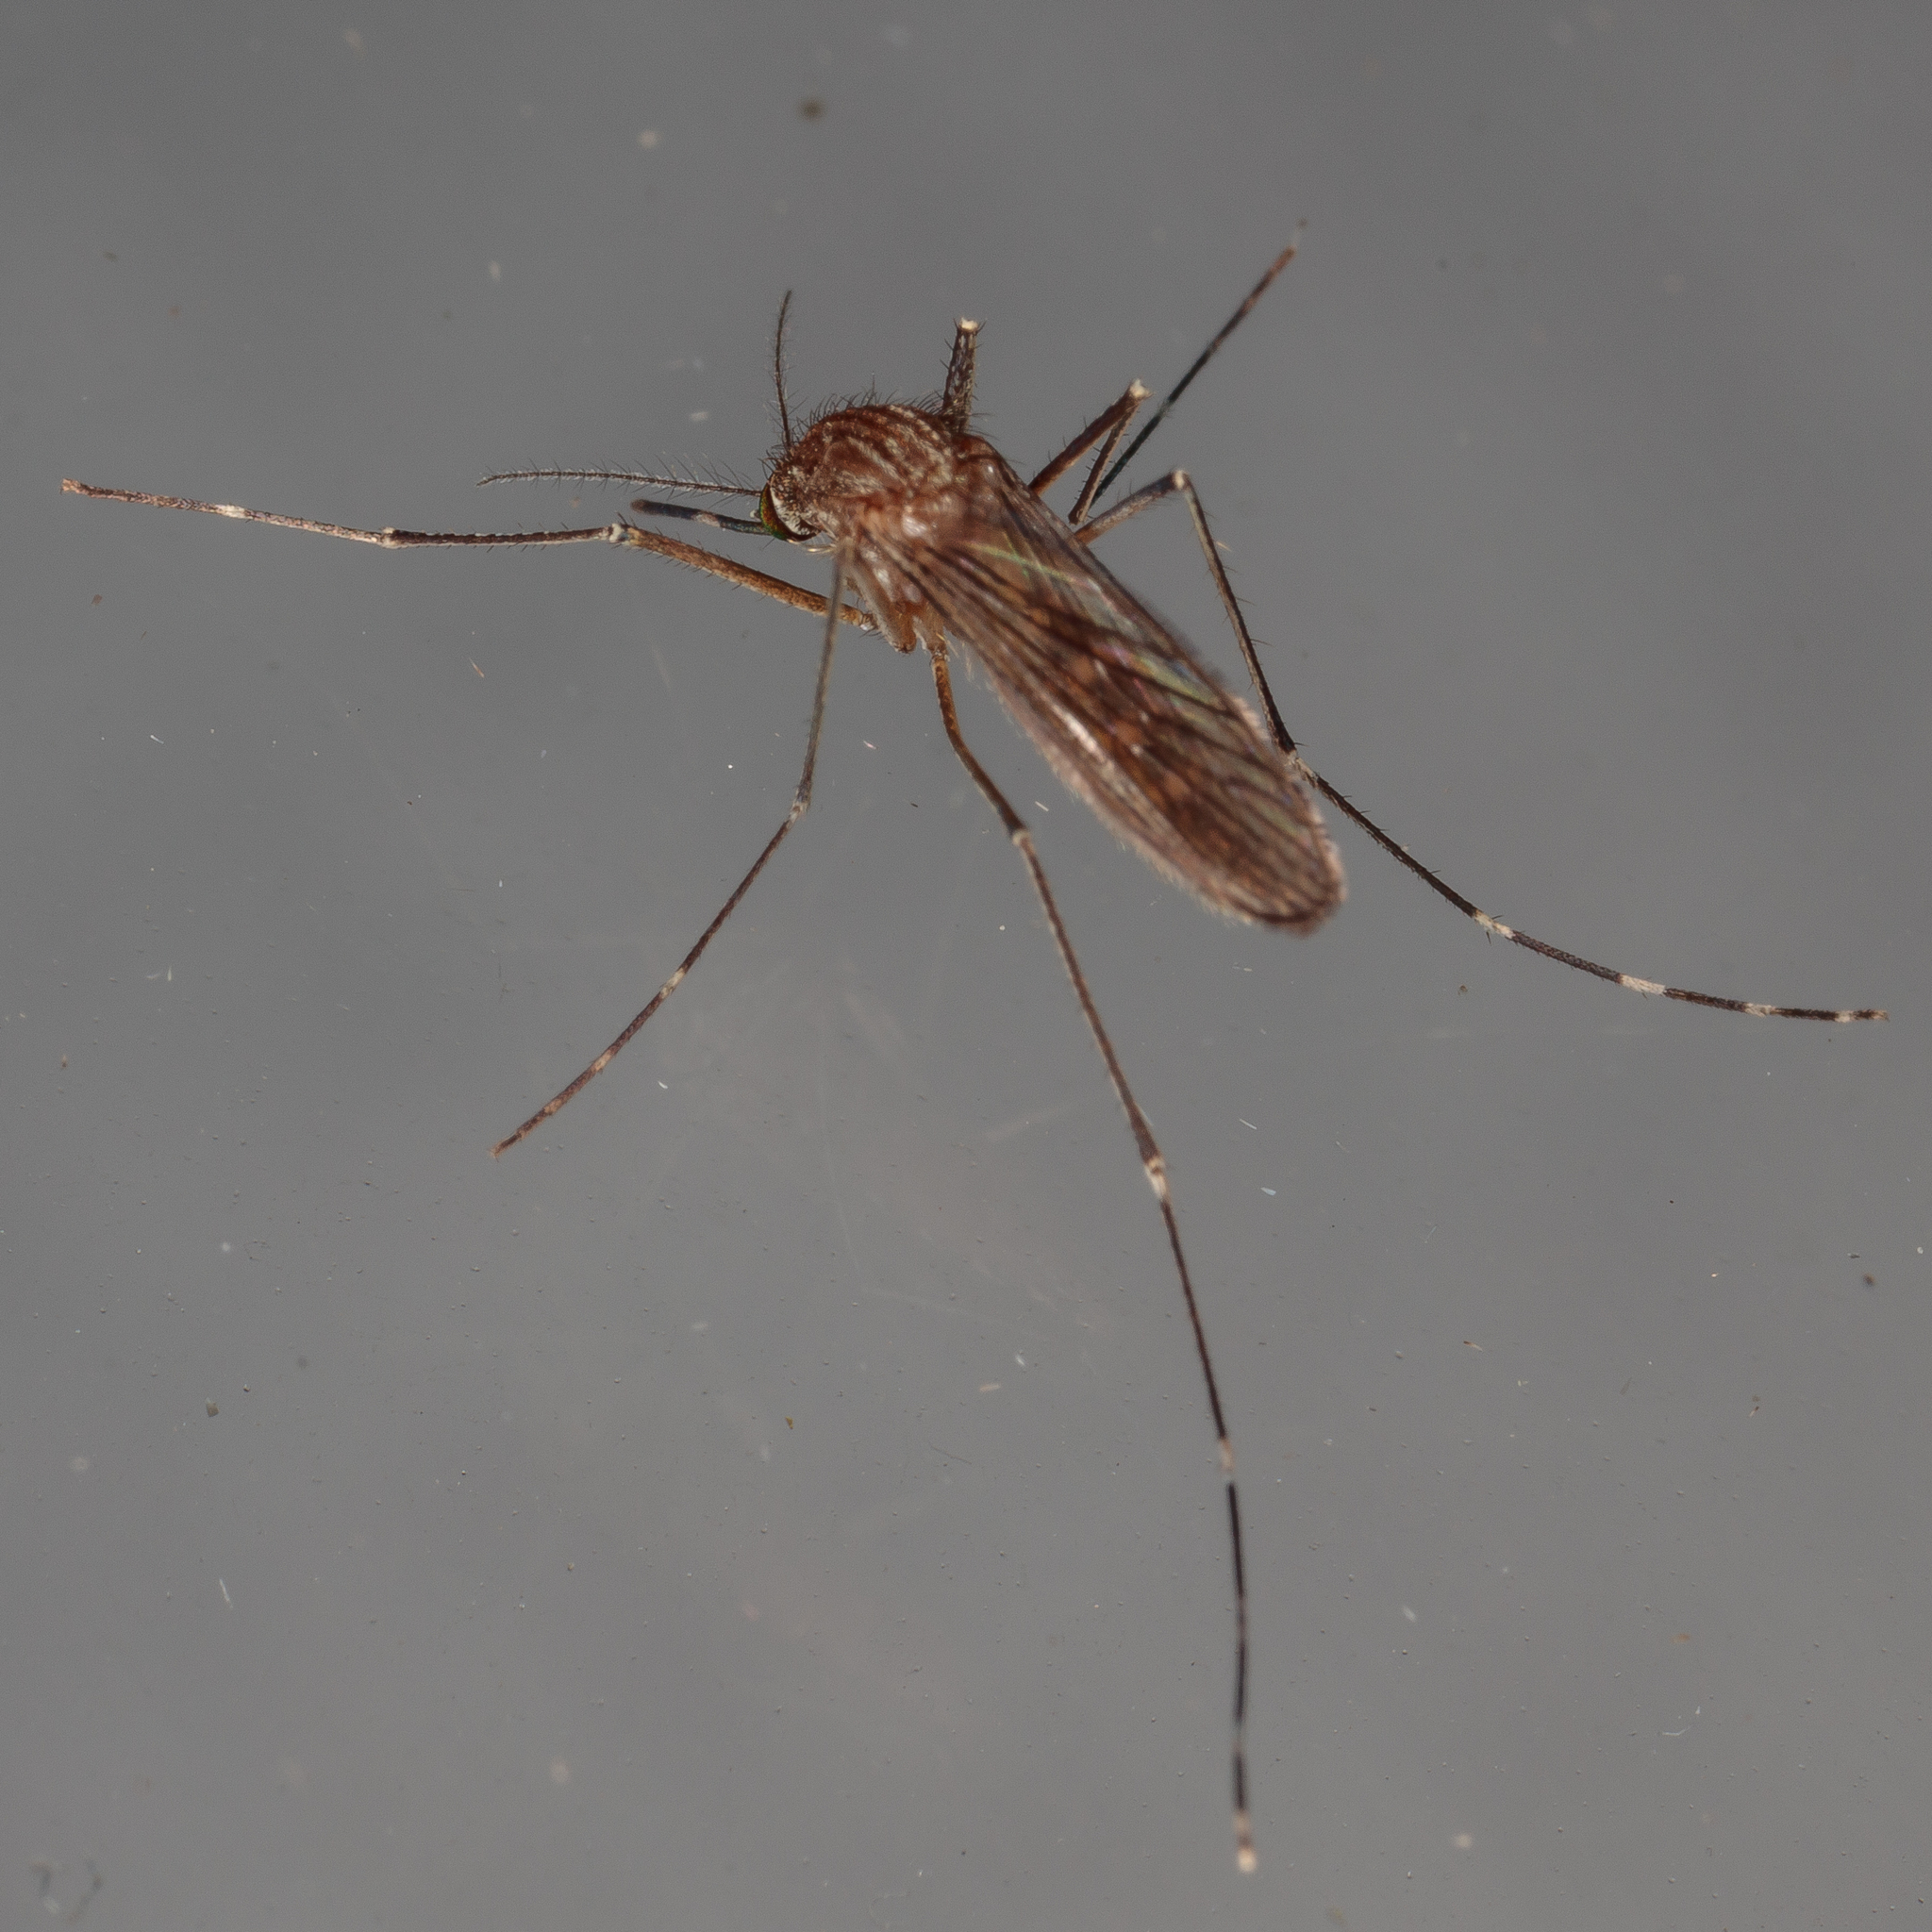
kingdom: Animalia
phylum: Arthropoda
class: Insecta
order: Diptera
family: Culicidae
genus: Culex
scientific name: Culex tarsalis
